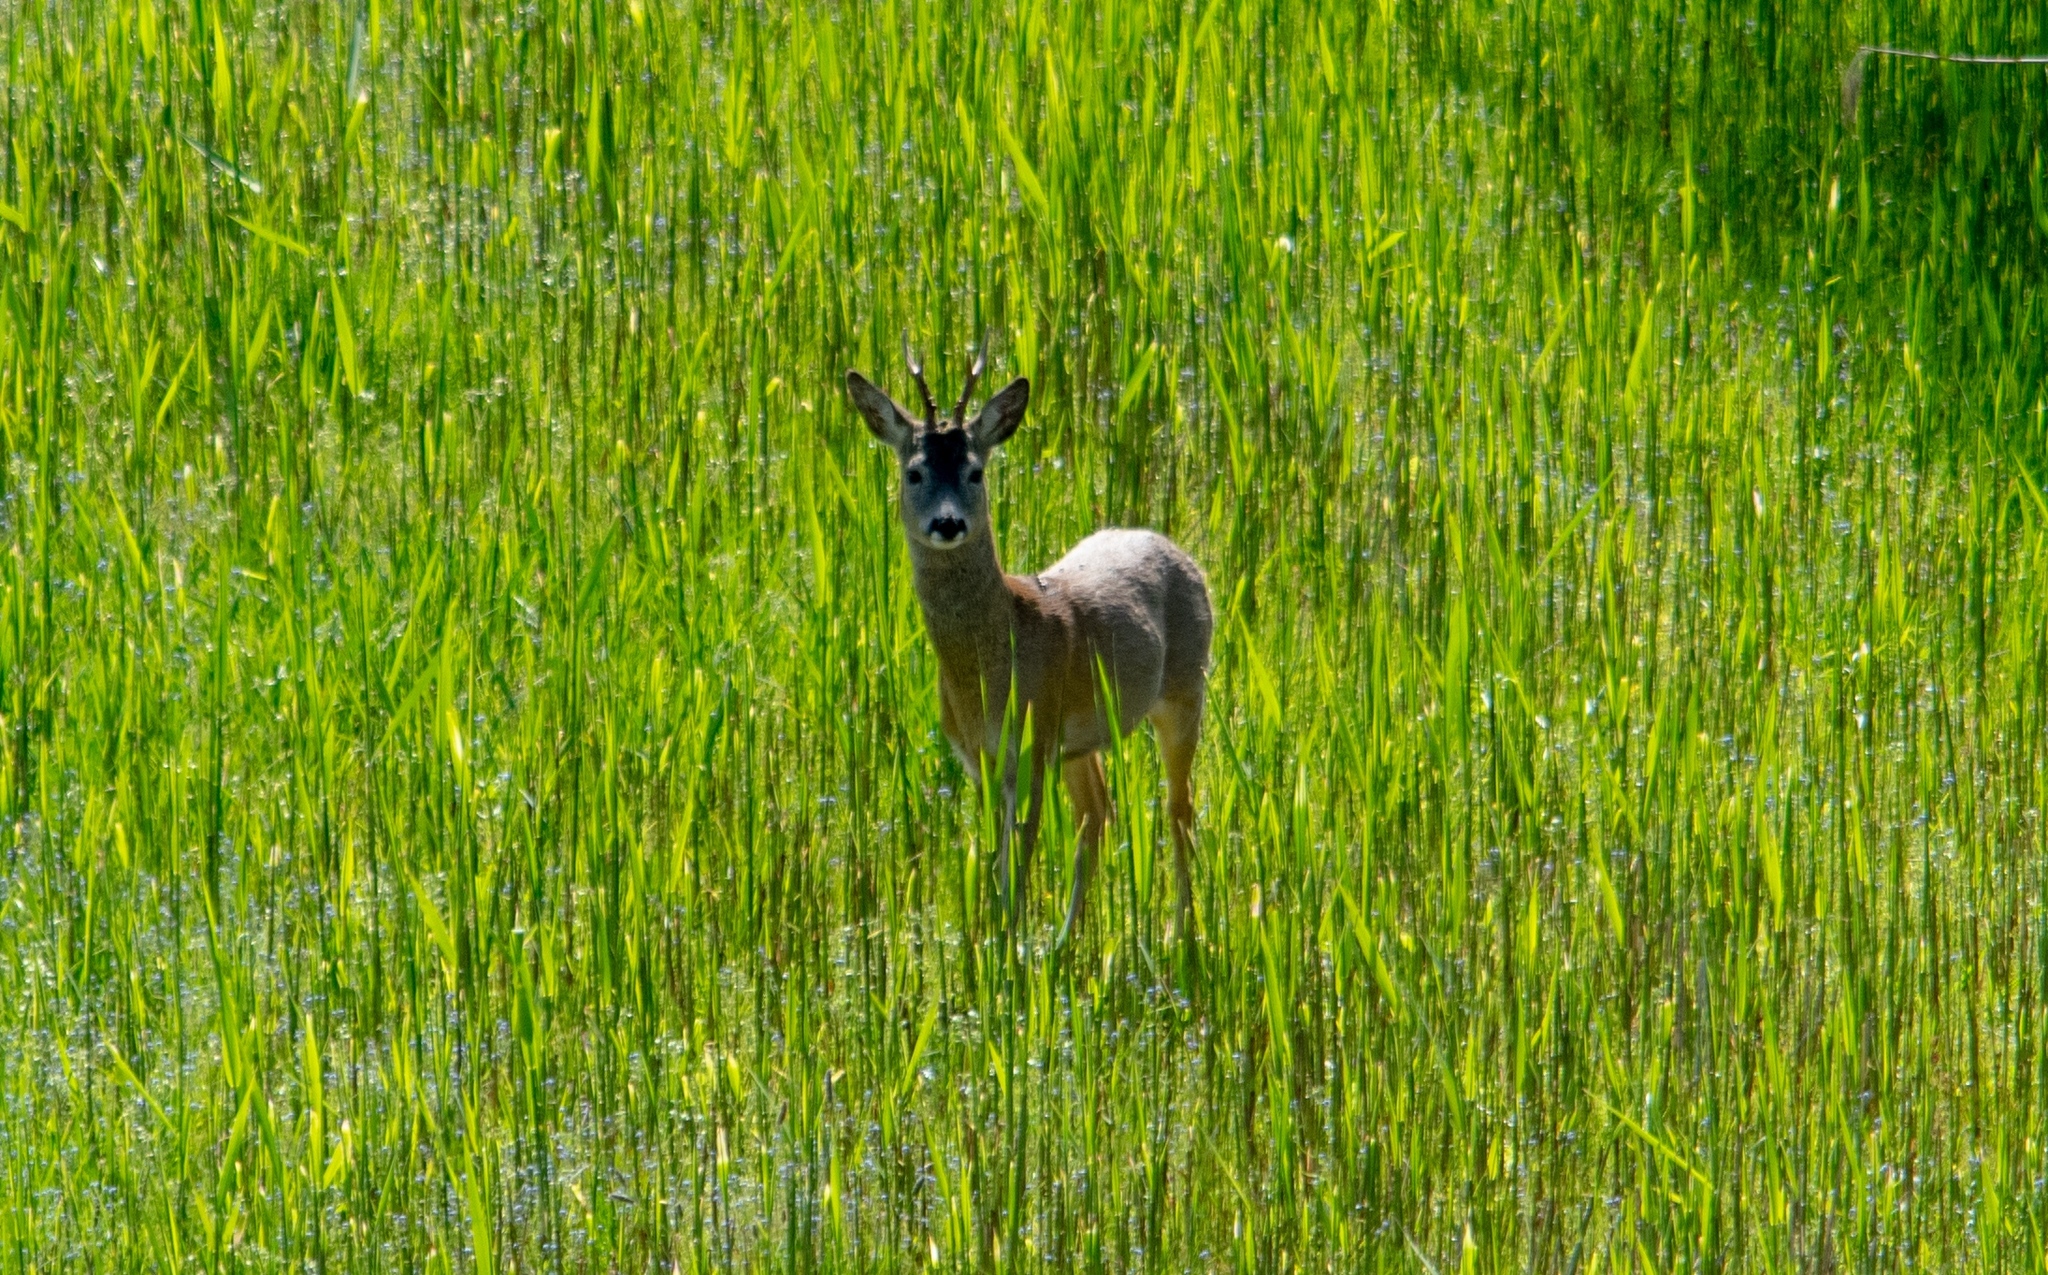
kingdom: Animalia
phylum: Chordata
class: Mammalia
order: Artiodactyla
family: Cervidae
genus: Capreolus
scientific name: Capreolus capreolus
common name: Western roe deer
